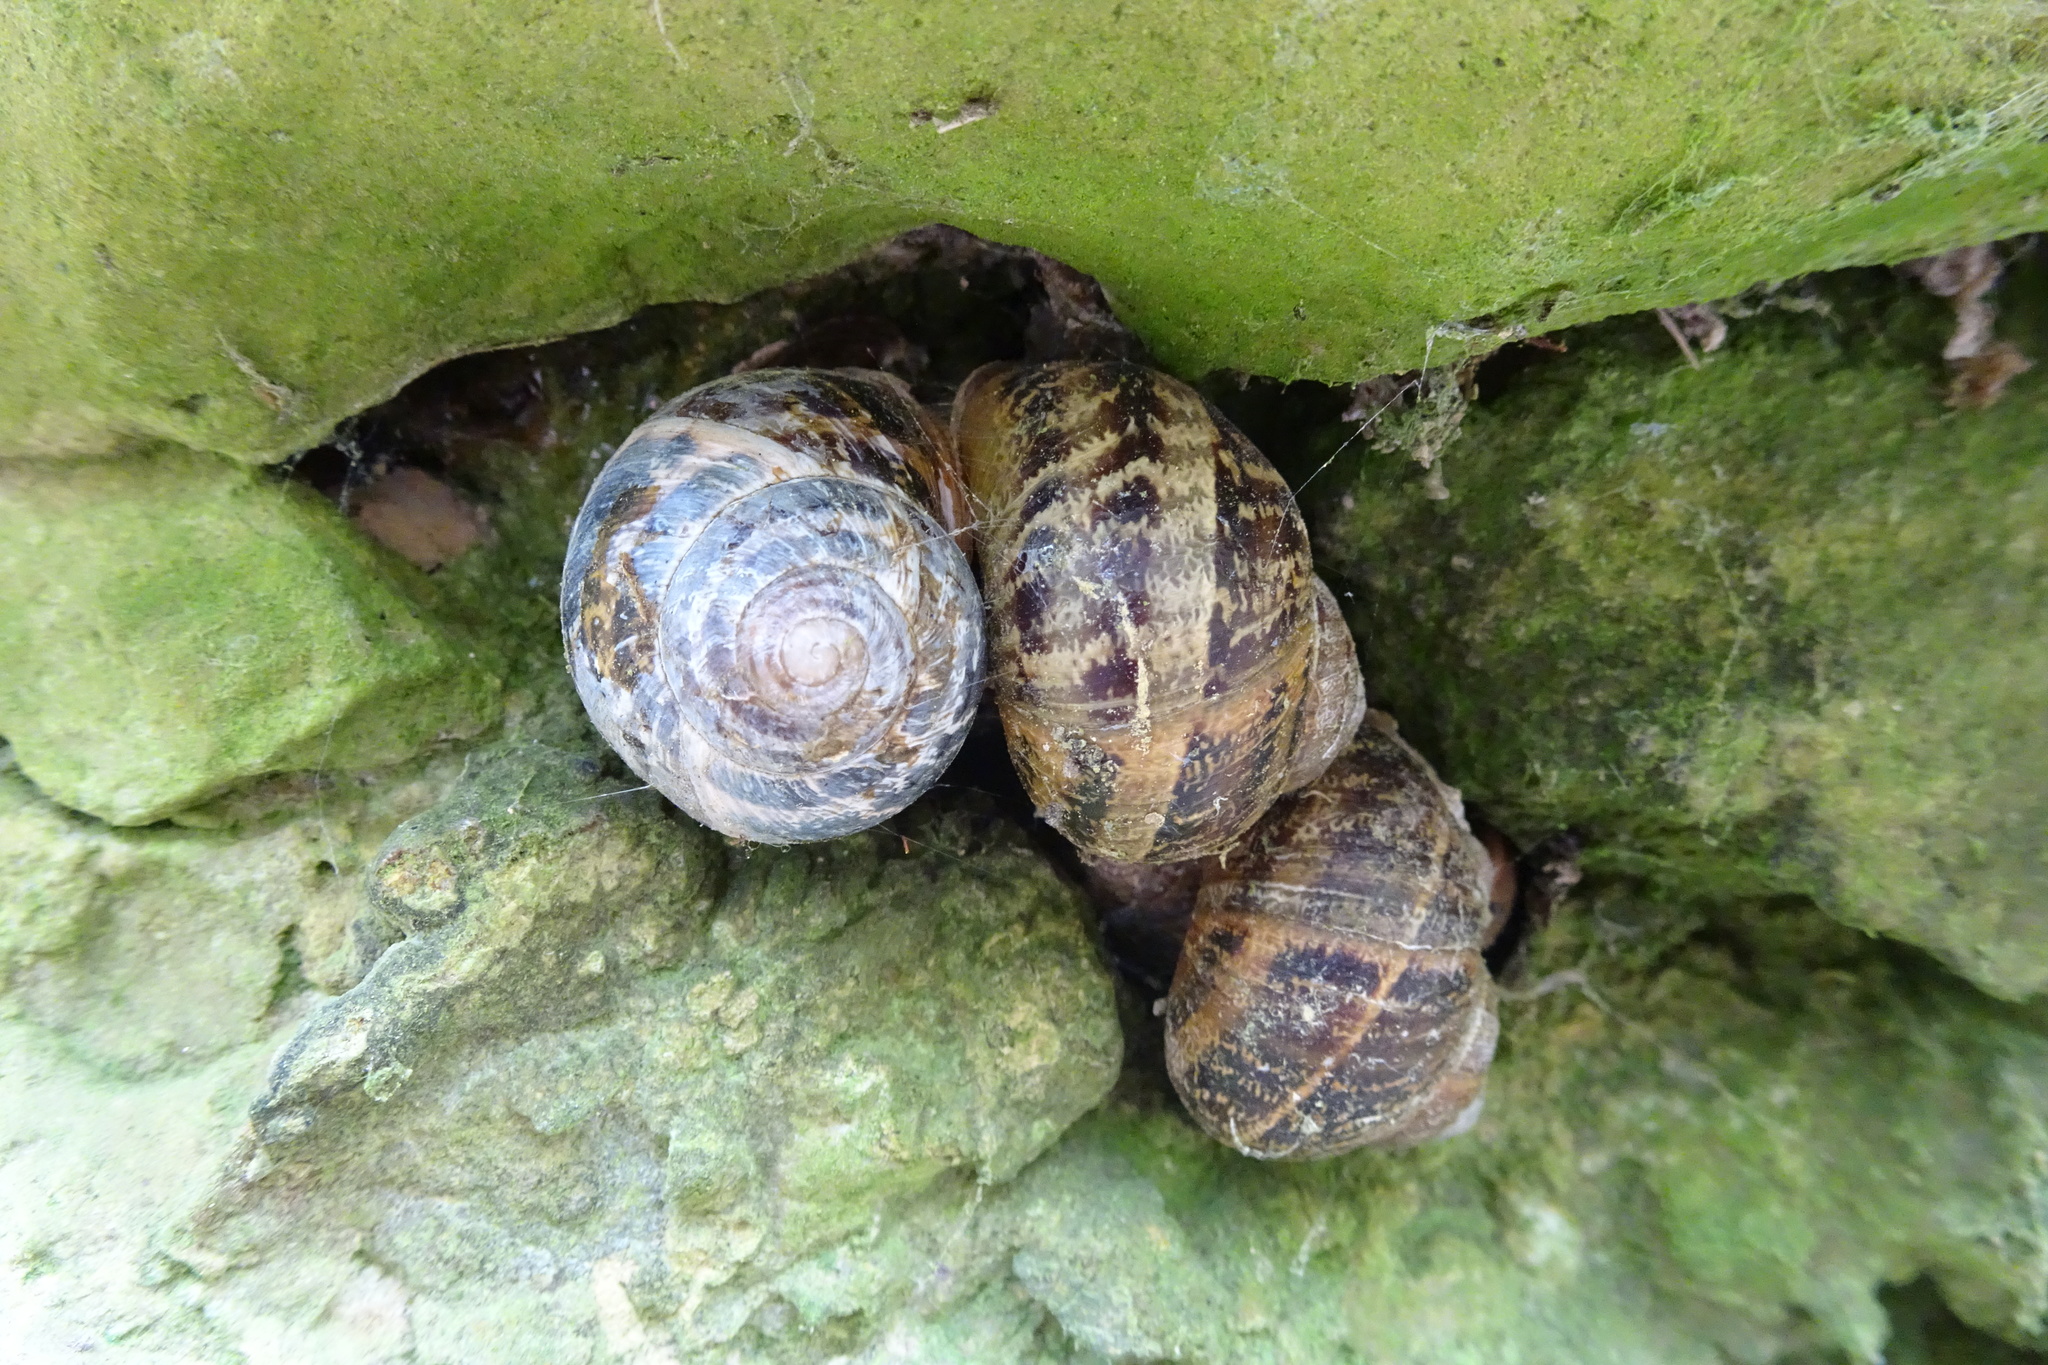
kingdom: Animalia
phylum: Mollusca
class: Gastropoda
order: Stylommatophora
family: Helicidae
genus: Cornu
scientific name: Cornu aspersum
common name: Brown garden snail
